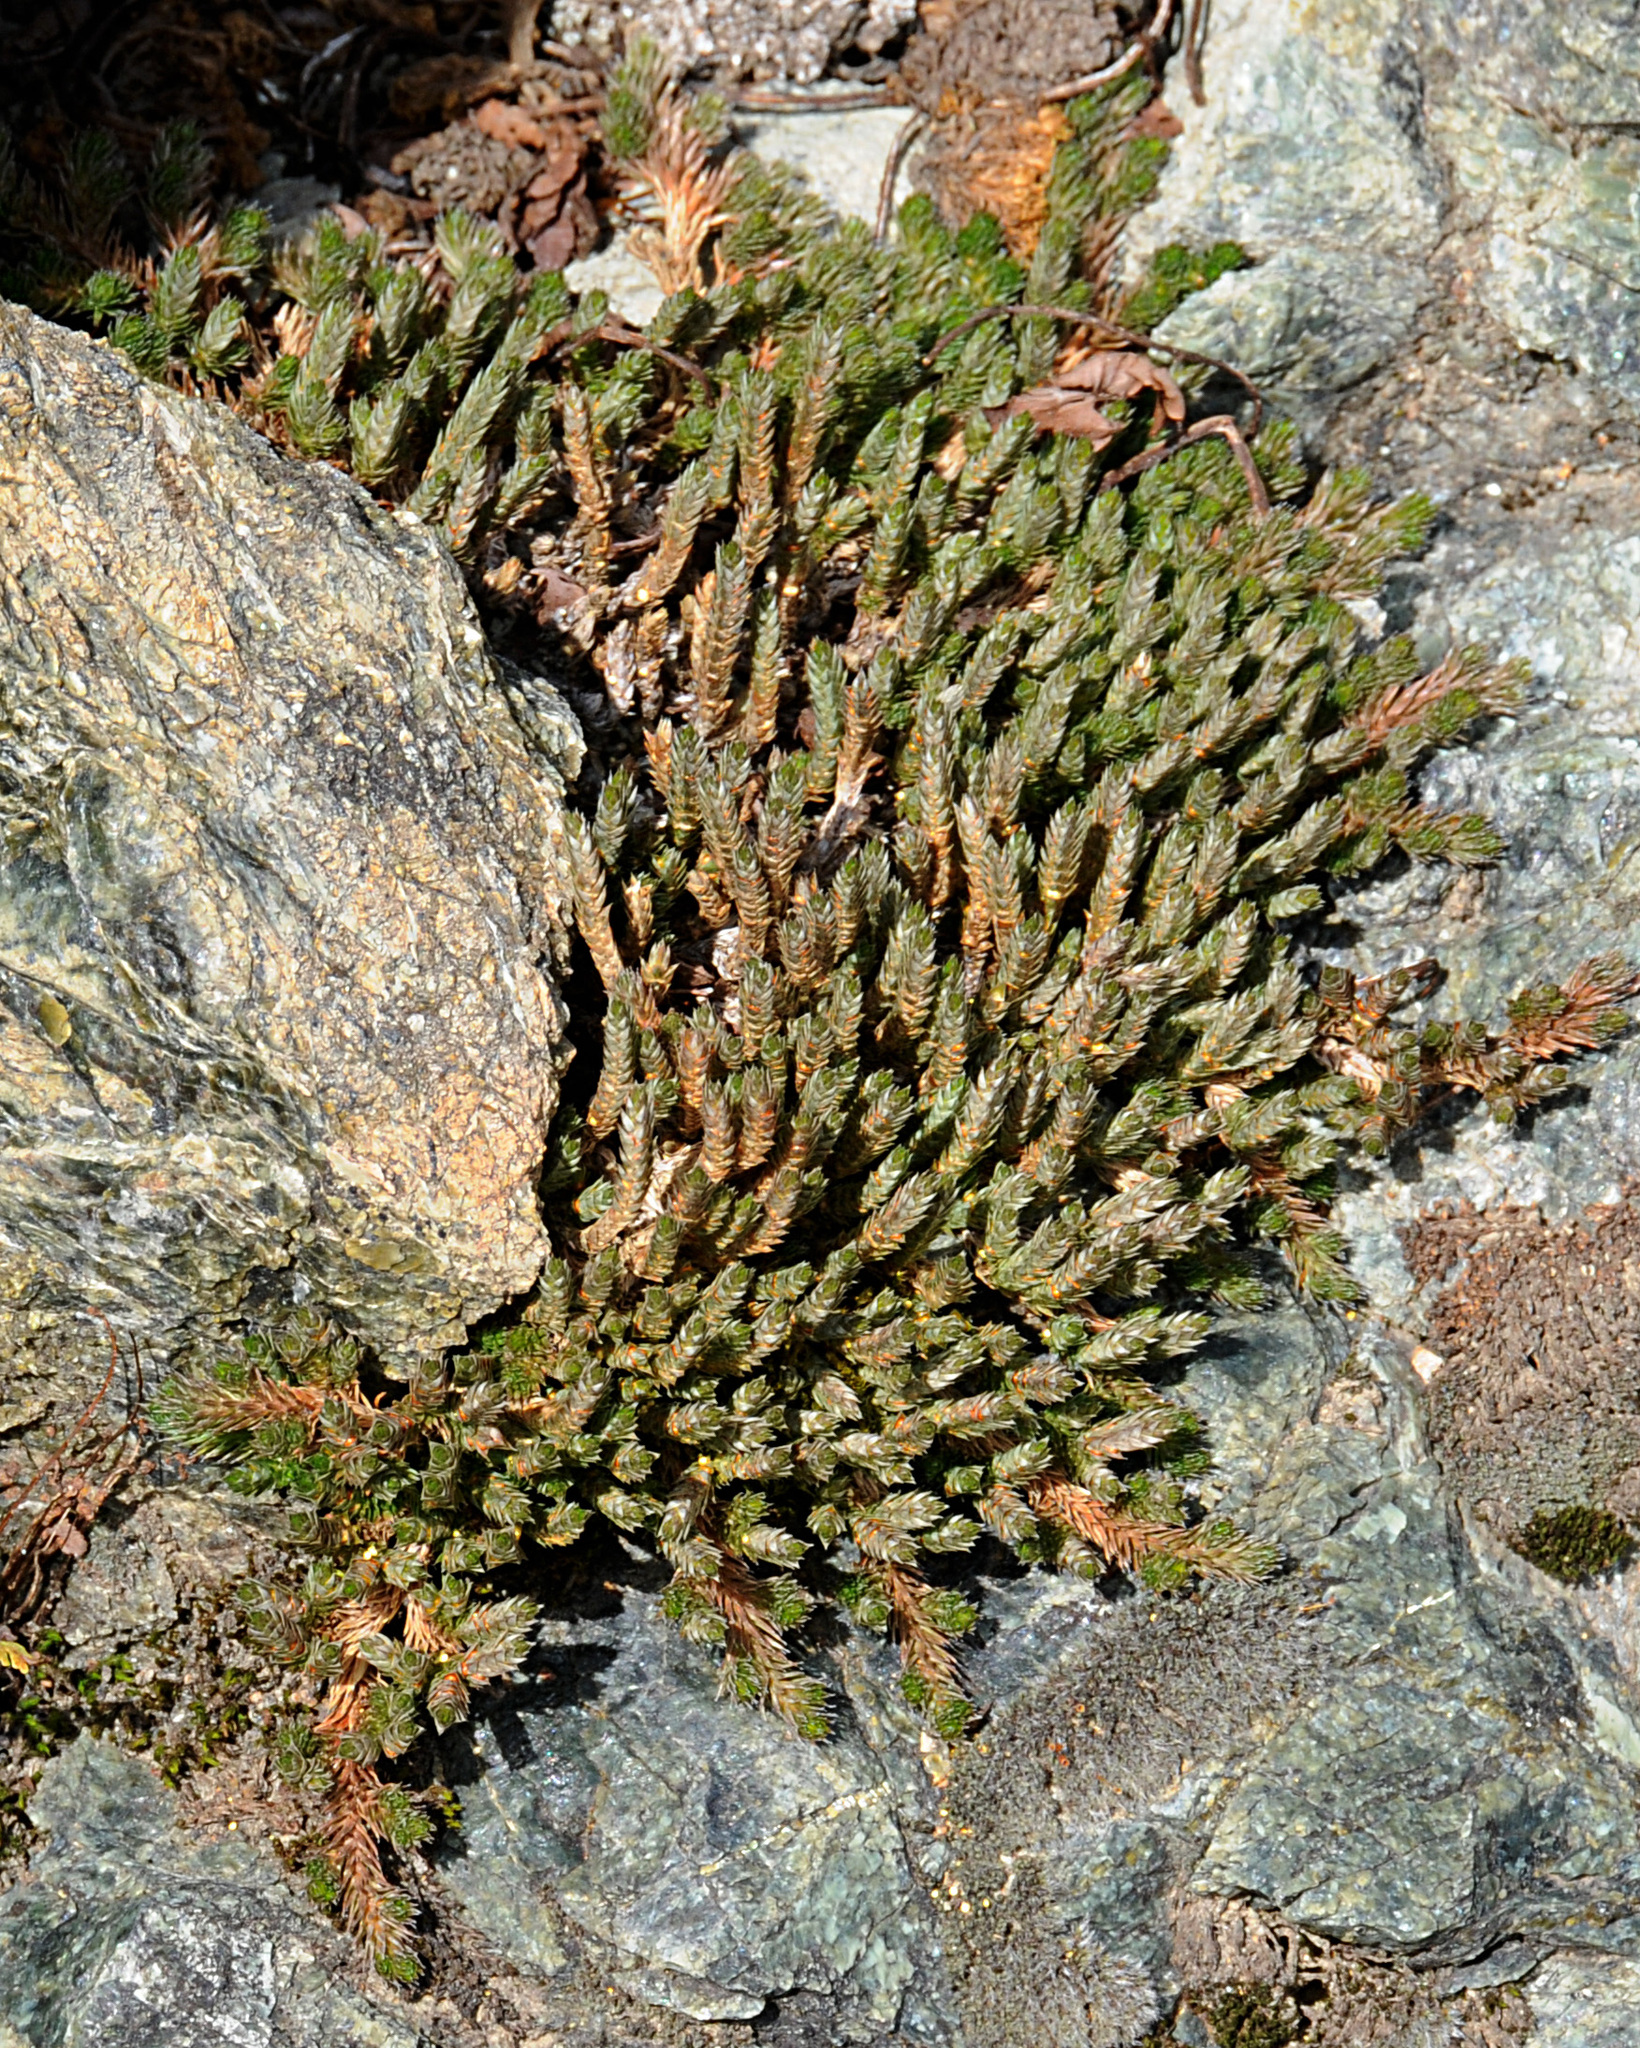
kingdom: Plantae
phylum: Tracheophyta
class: Lycopodiopsida
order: Selaginellales
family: Selaginellaceae
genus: Selaginella
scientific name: Selaginella wallacei
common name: Wallace's selaginella
